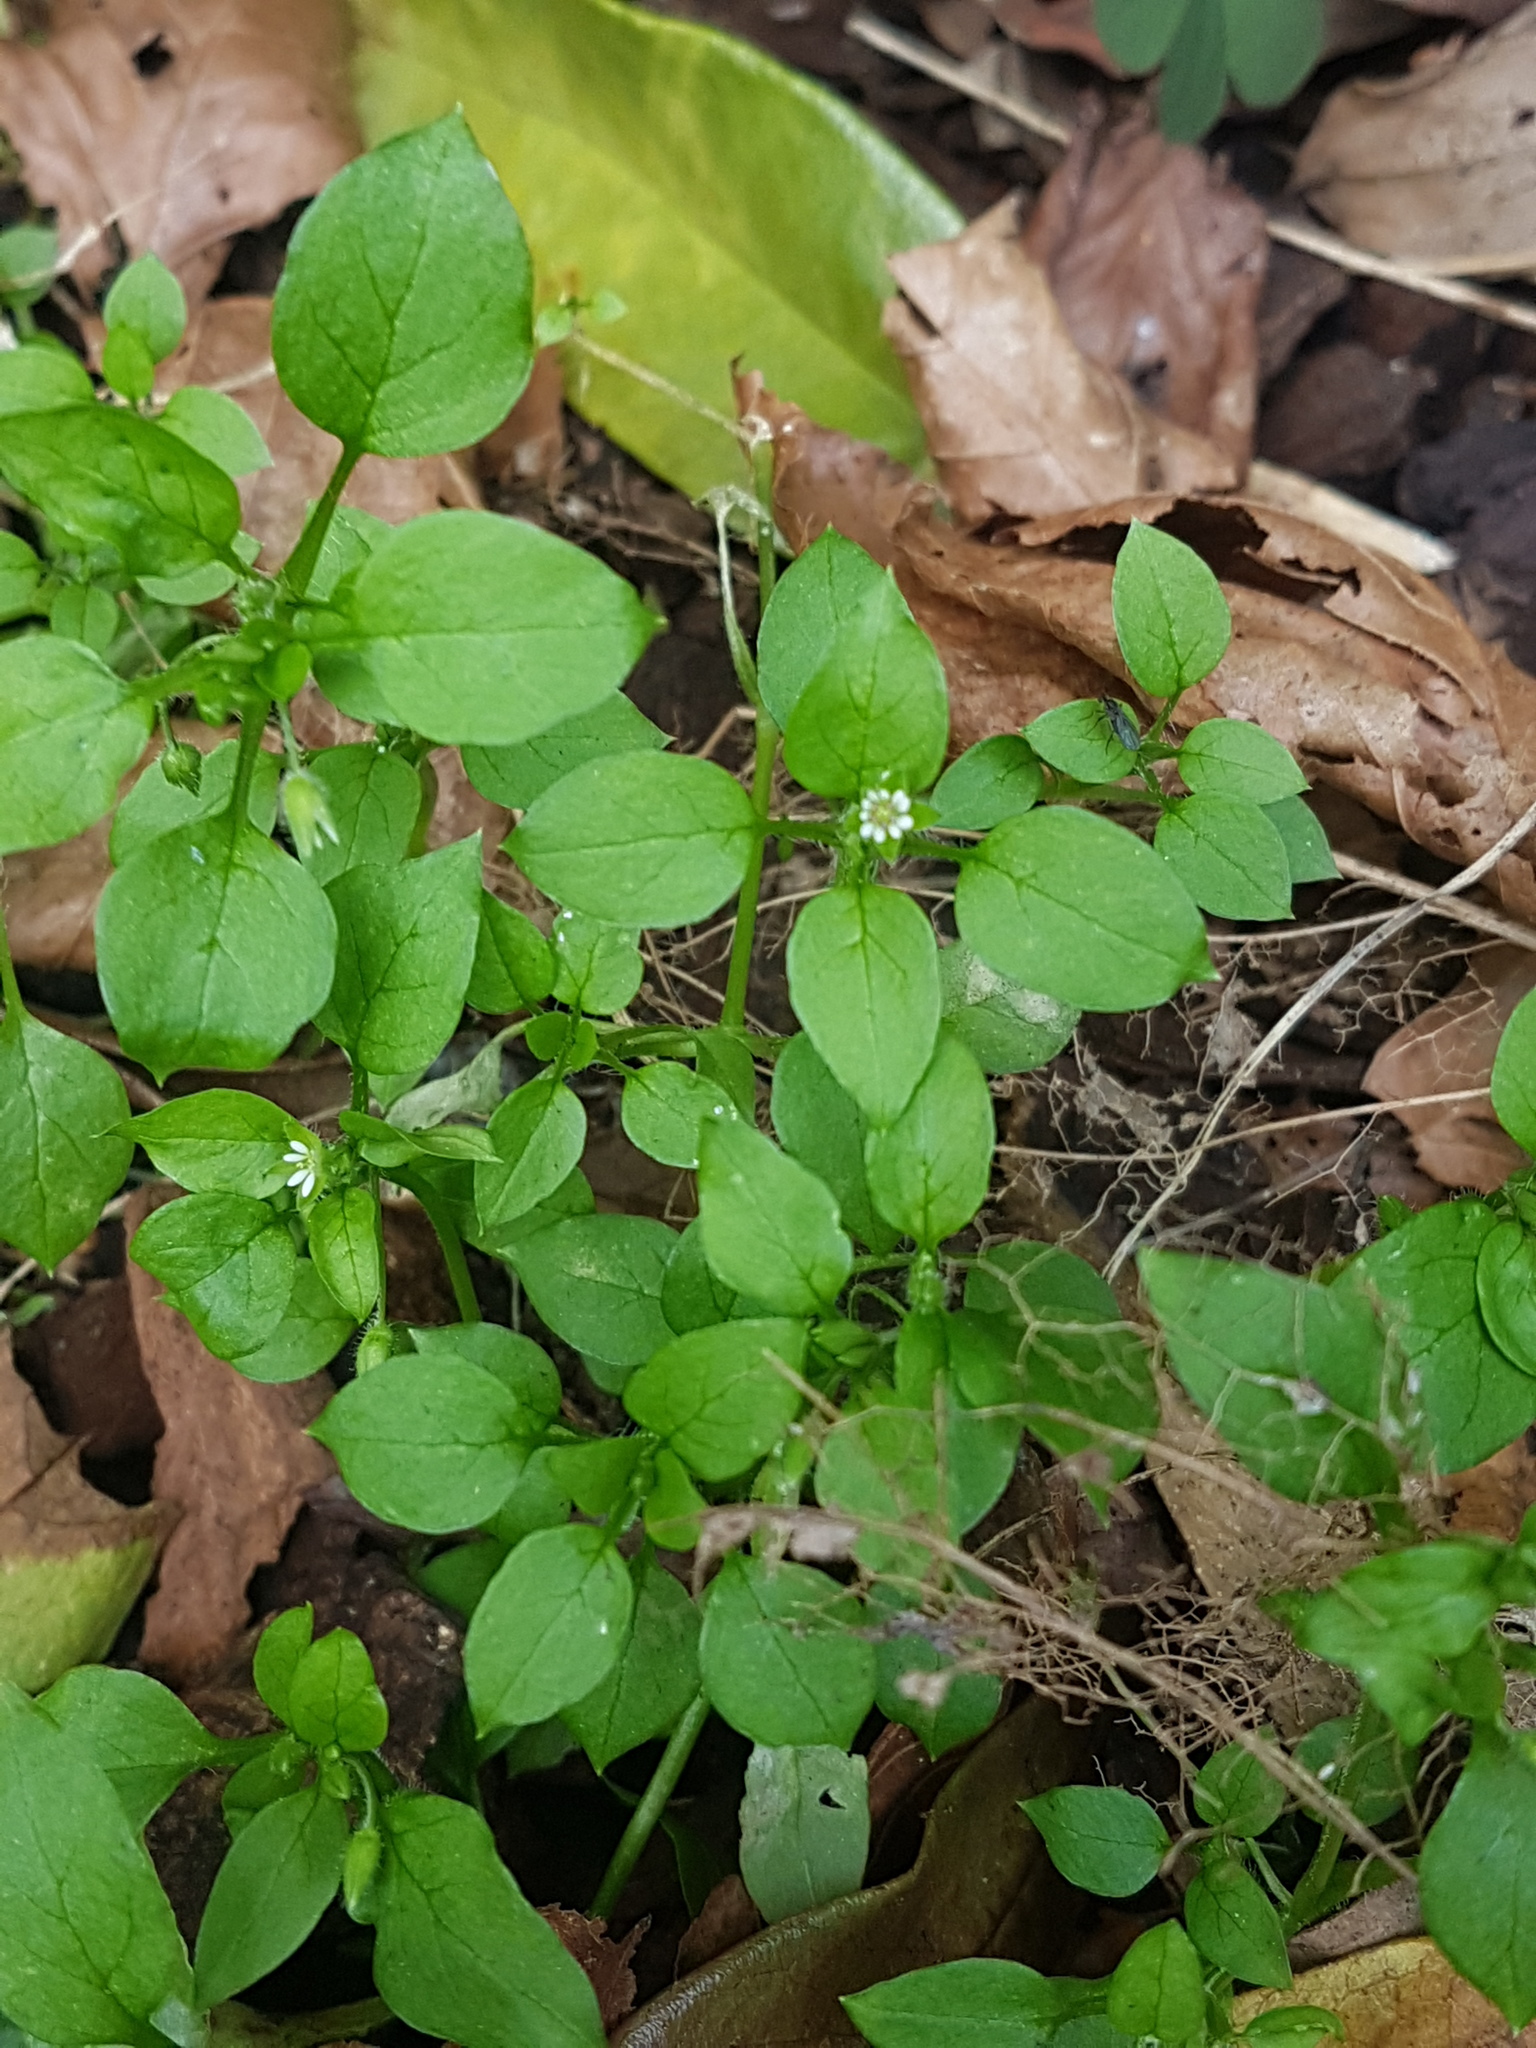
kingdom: Plantae
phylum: Tracheophyta
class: Magnoliopsida
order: Caryophyllales
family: Caryophyllaceae
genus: Stellaria
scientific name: Stellaria media
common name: Common chickweed
